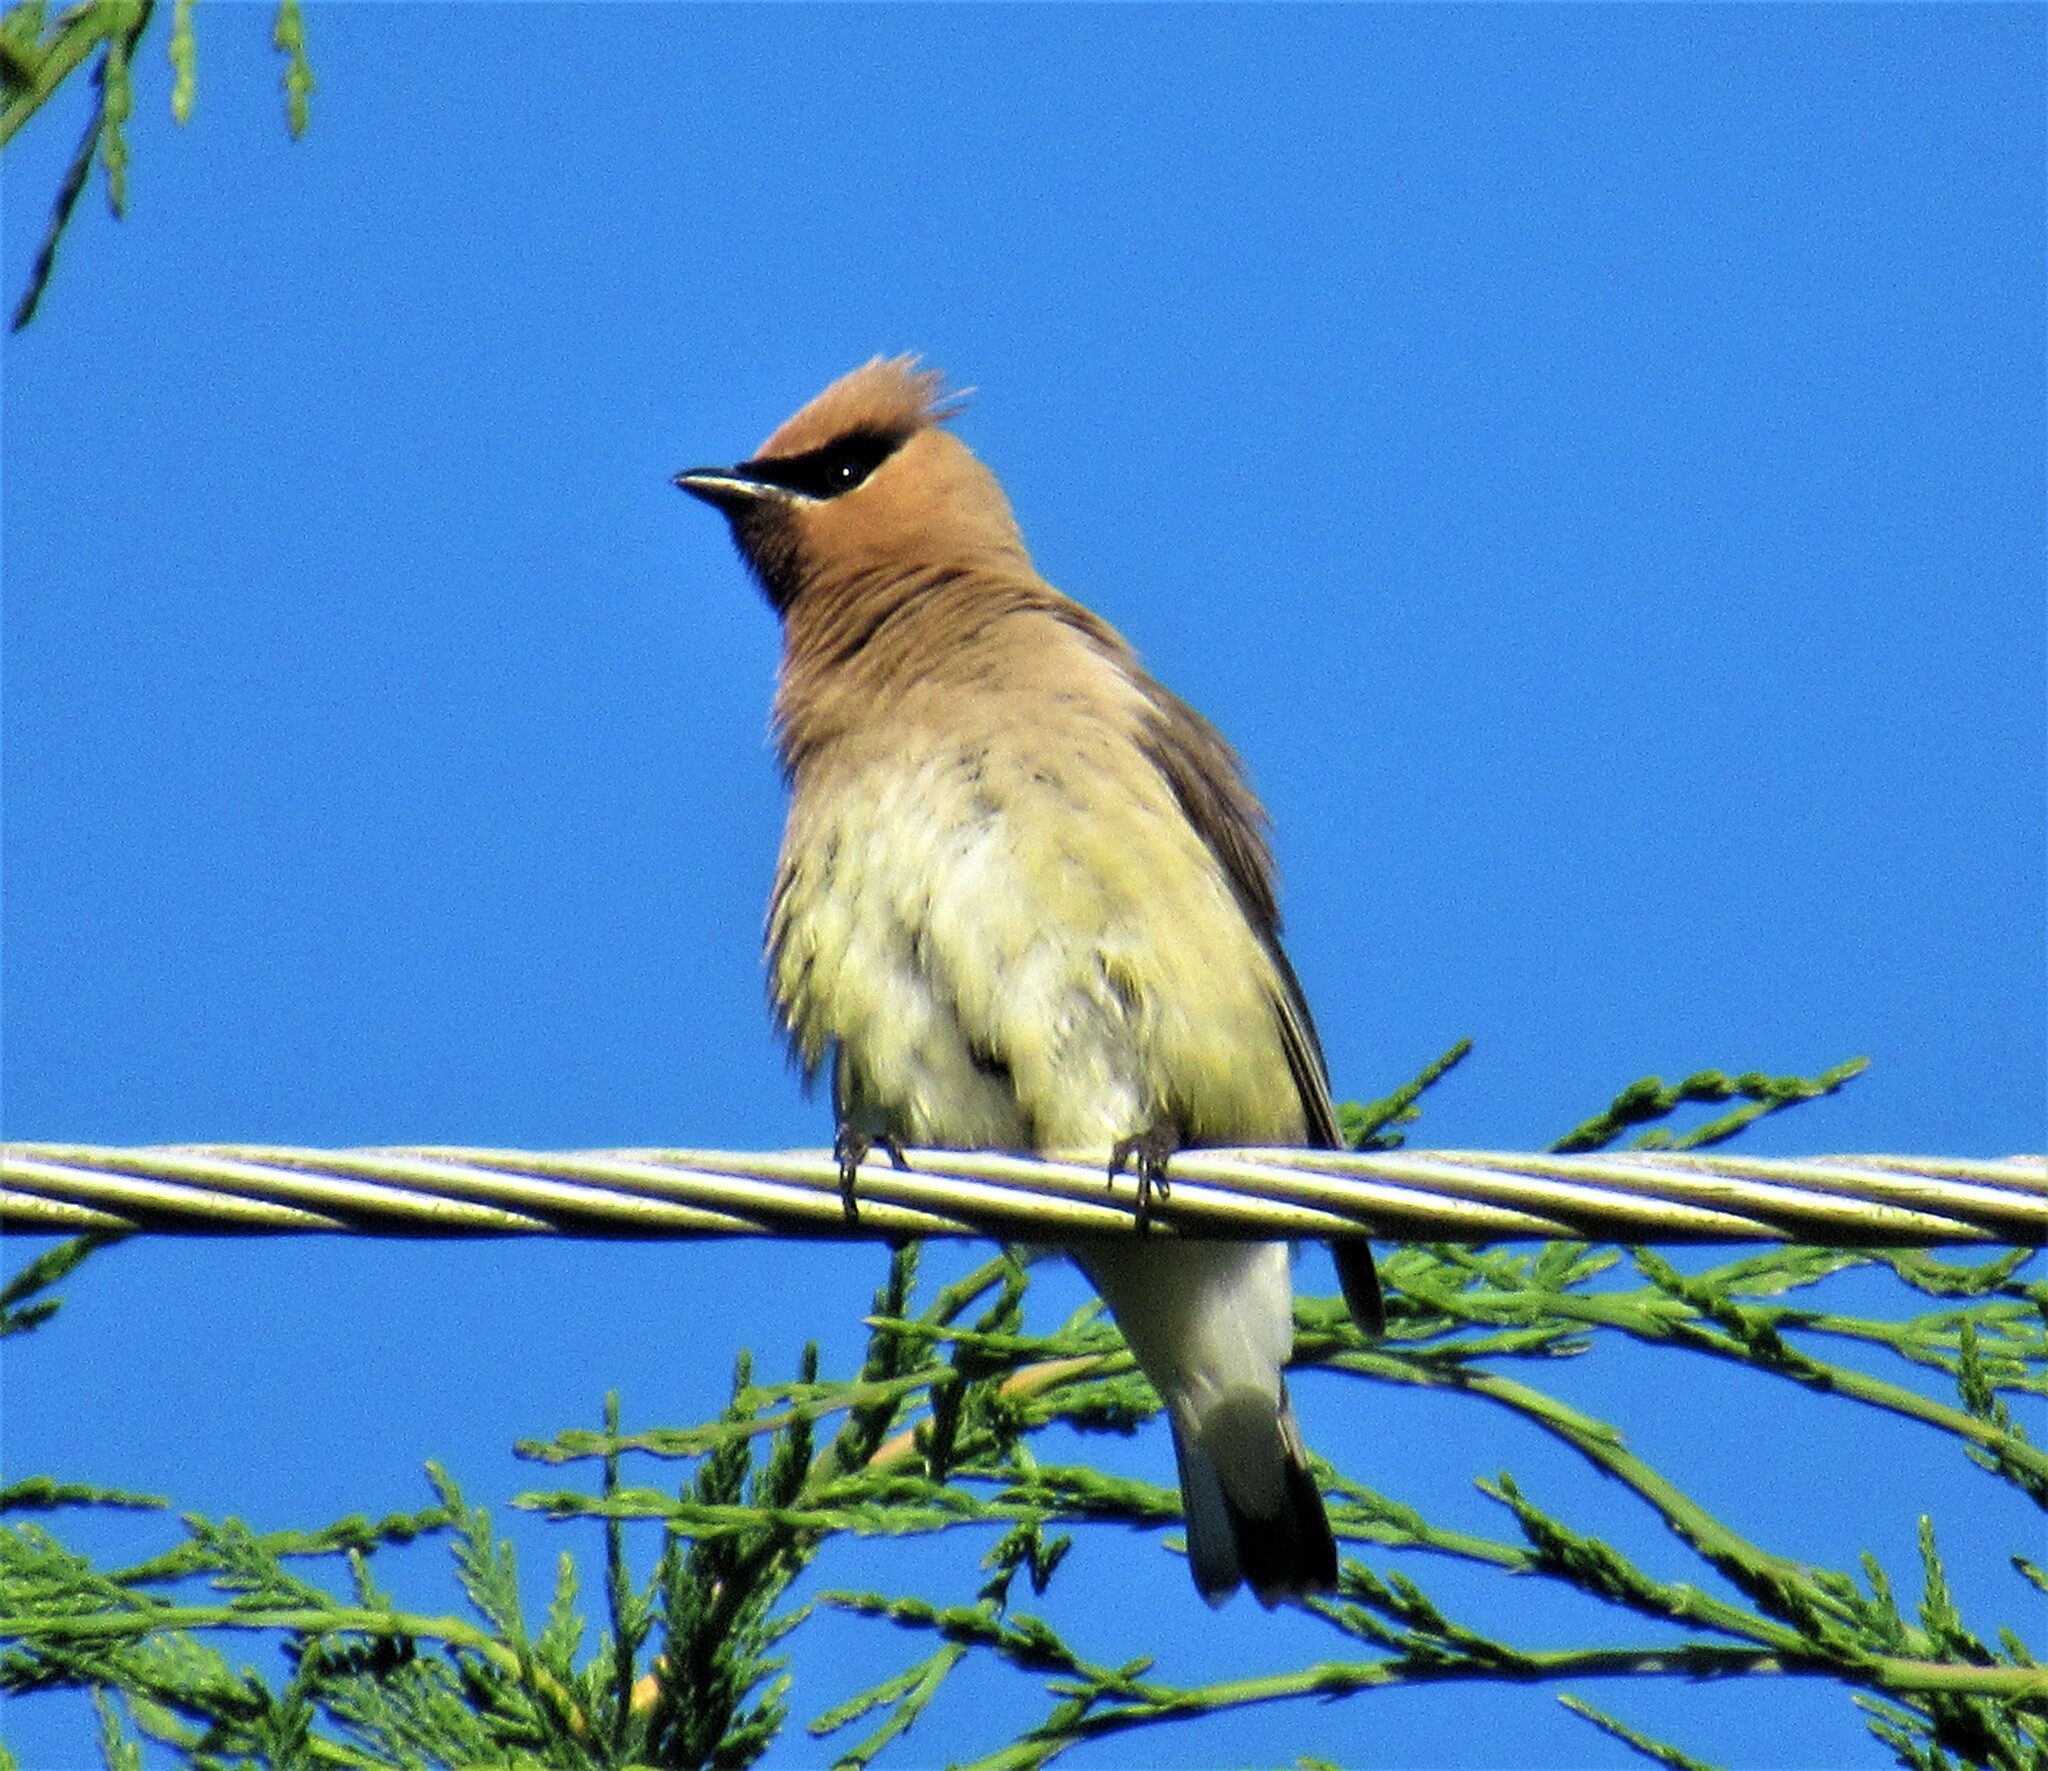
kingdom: Animalia
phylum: Chordata
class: Aves
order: Passeriformes
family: Bombycillidae
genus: Bombycilla
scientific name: Bombycilla cedrorum
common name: Cedar waxwing
